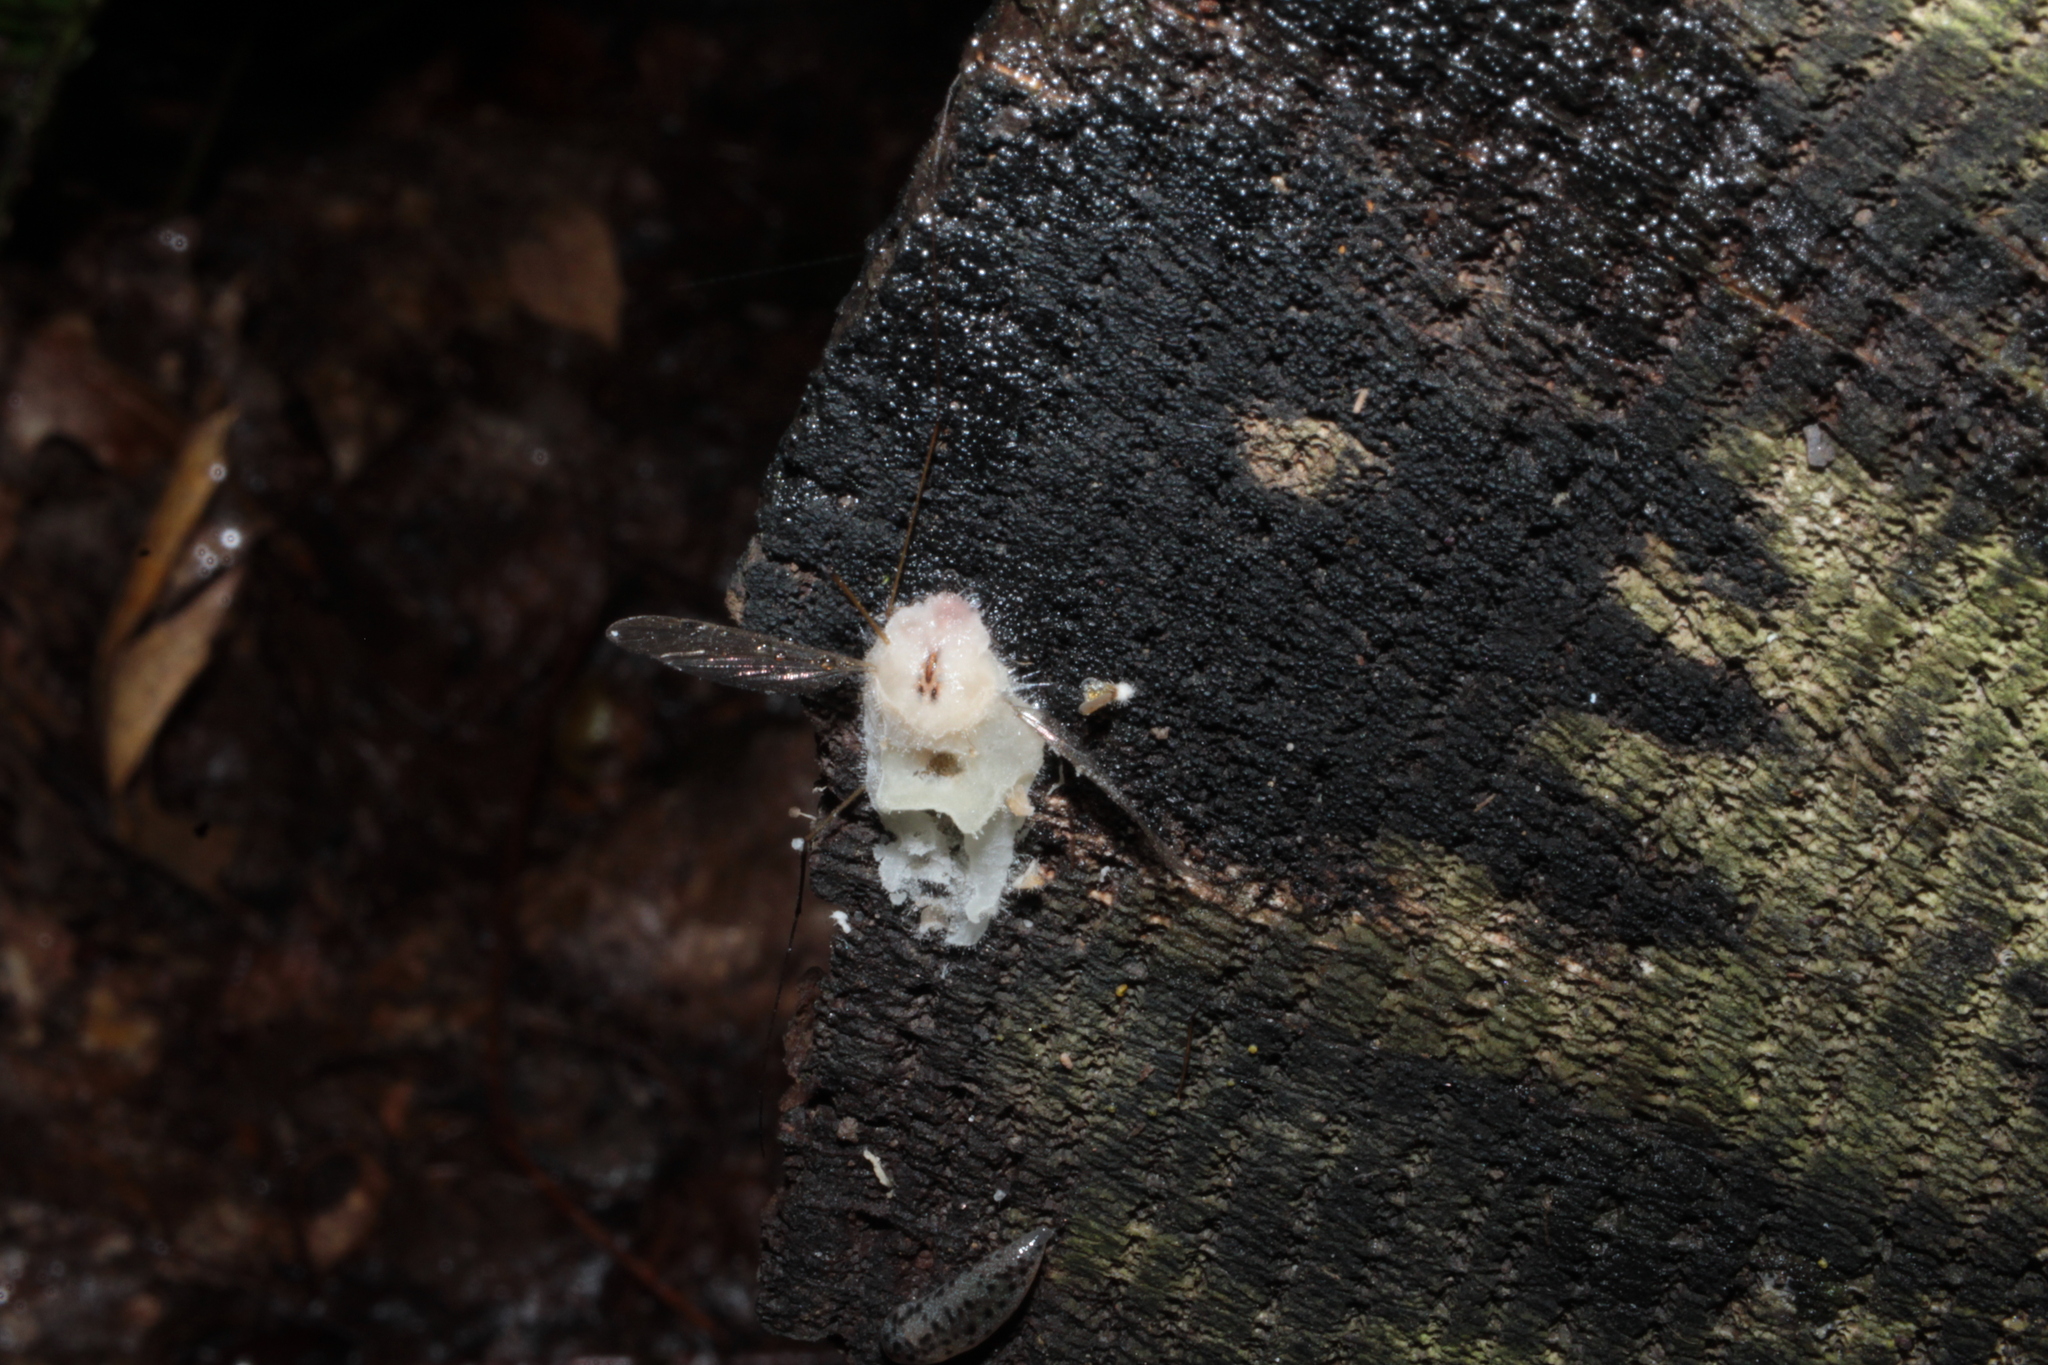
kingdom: Fungi
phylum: Entomophthoromycota
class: Entomophthoromycetes
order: Entomophthorales
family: Entomophthoraceae
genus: Erynia
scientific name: Erynia sepulchralis
